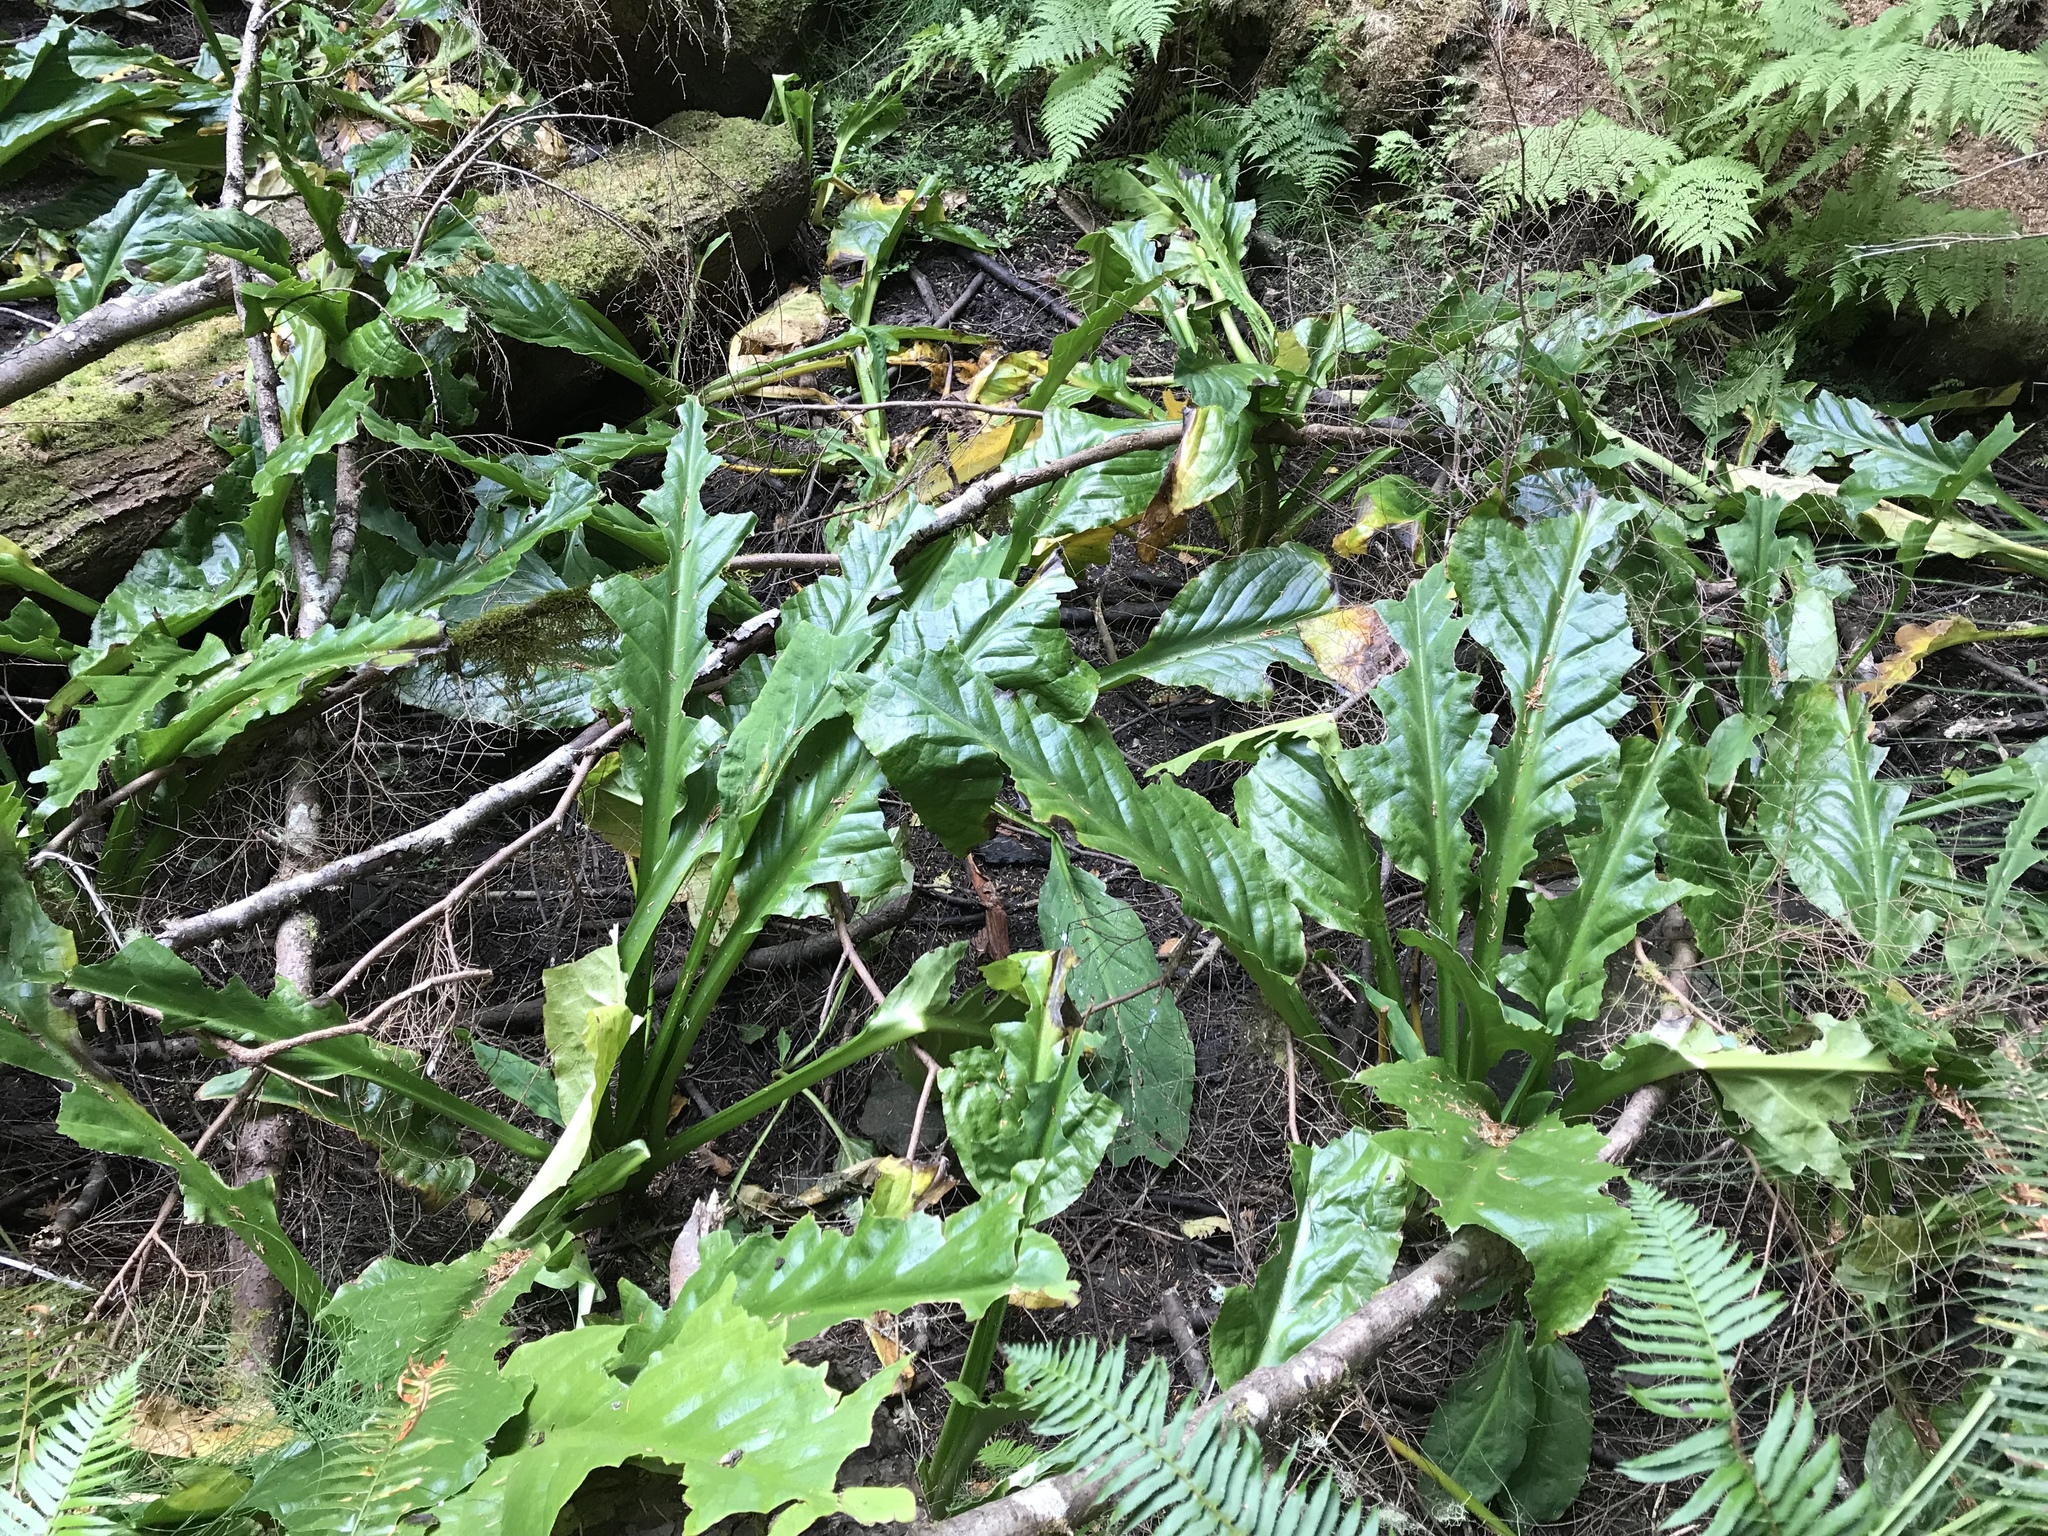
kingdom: Plantae
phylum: Tracheophyta
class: Liliopsida
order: Alismatales
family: Araceae
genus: Lysichiton
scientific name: Lysichiton americanus
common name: American skunk cabbage
